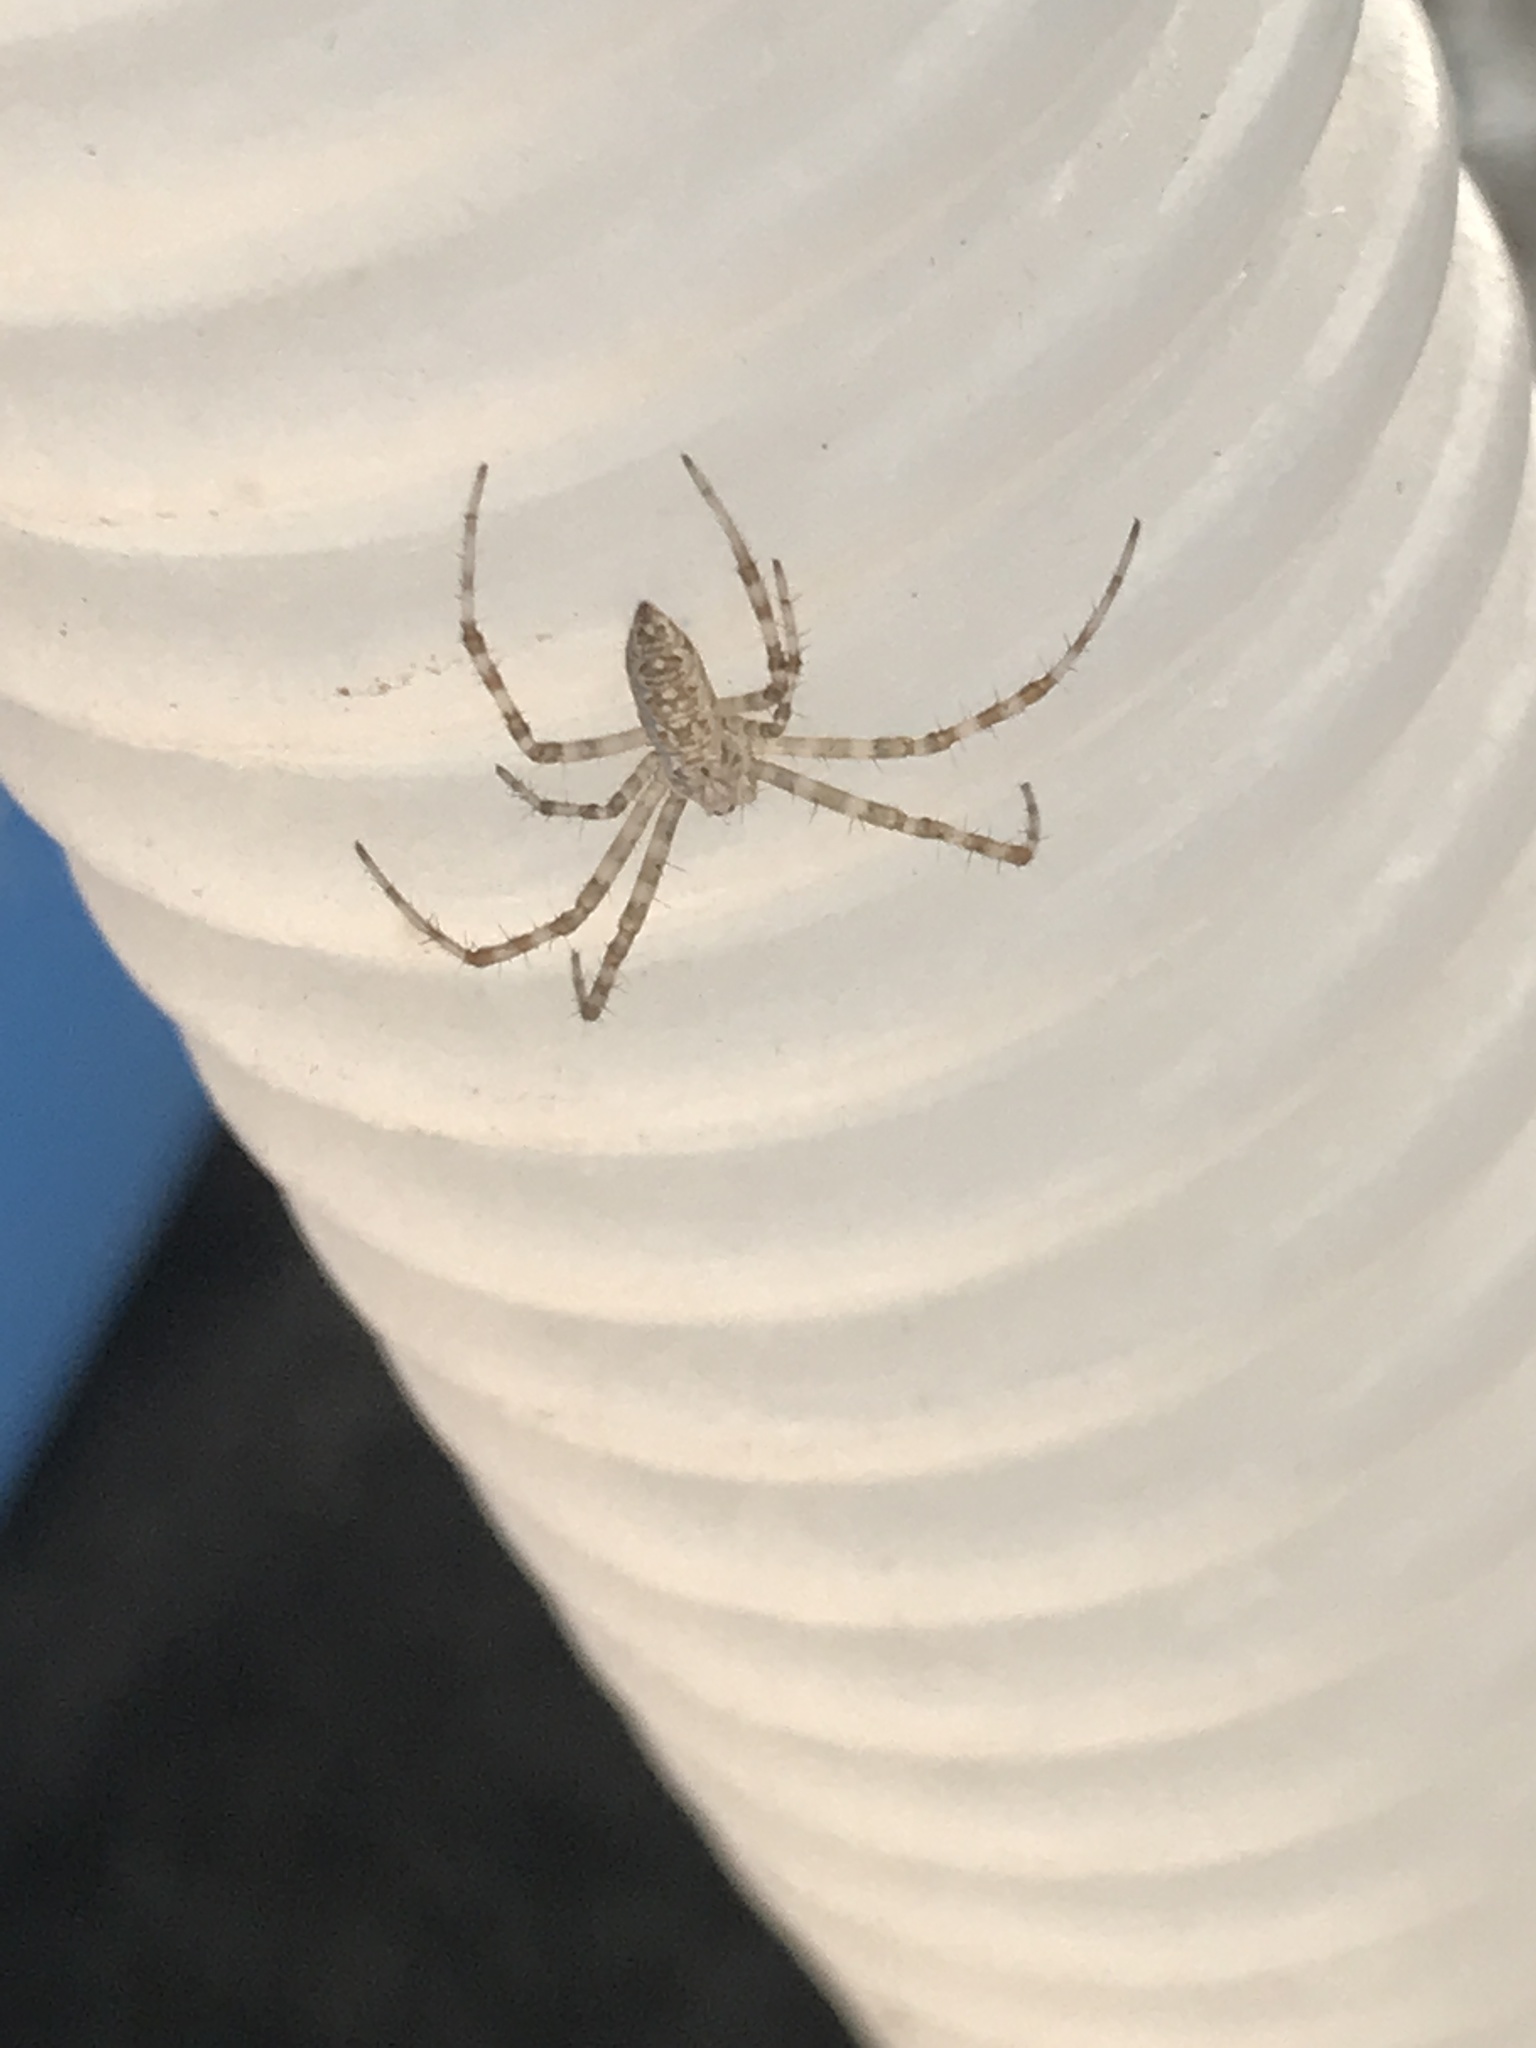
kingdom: Animalia
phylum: Arthropoda
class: Arachnida
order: Araneae
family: Araneidae
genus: Argiope
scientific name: Argiope aurantia
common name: Orb weavers
